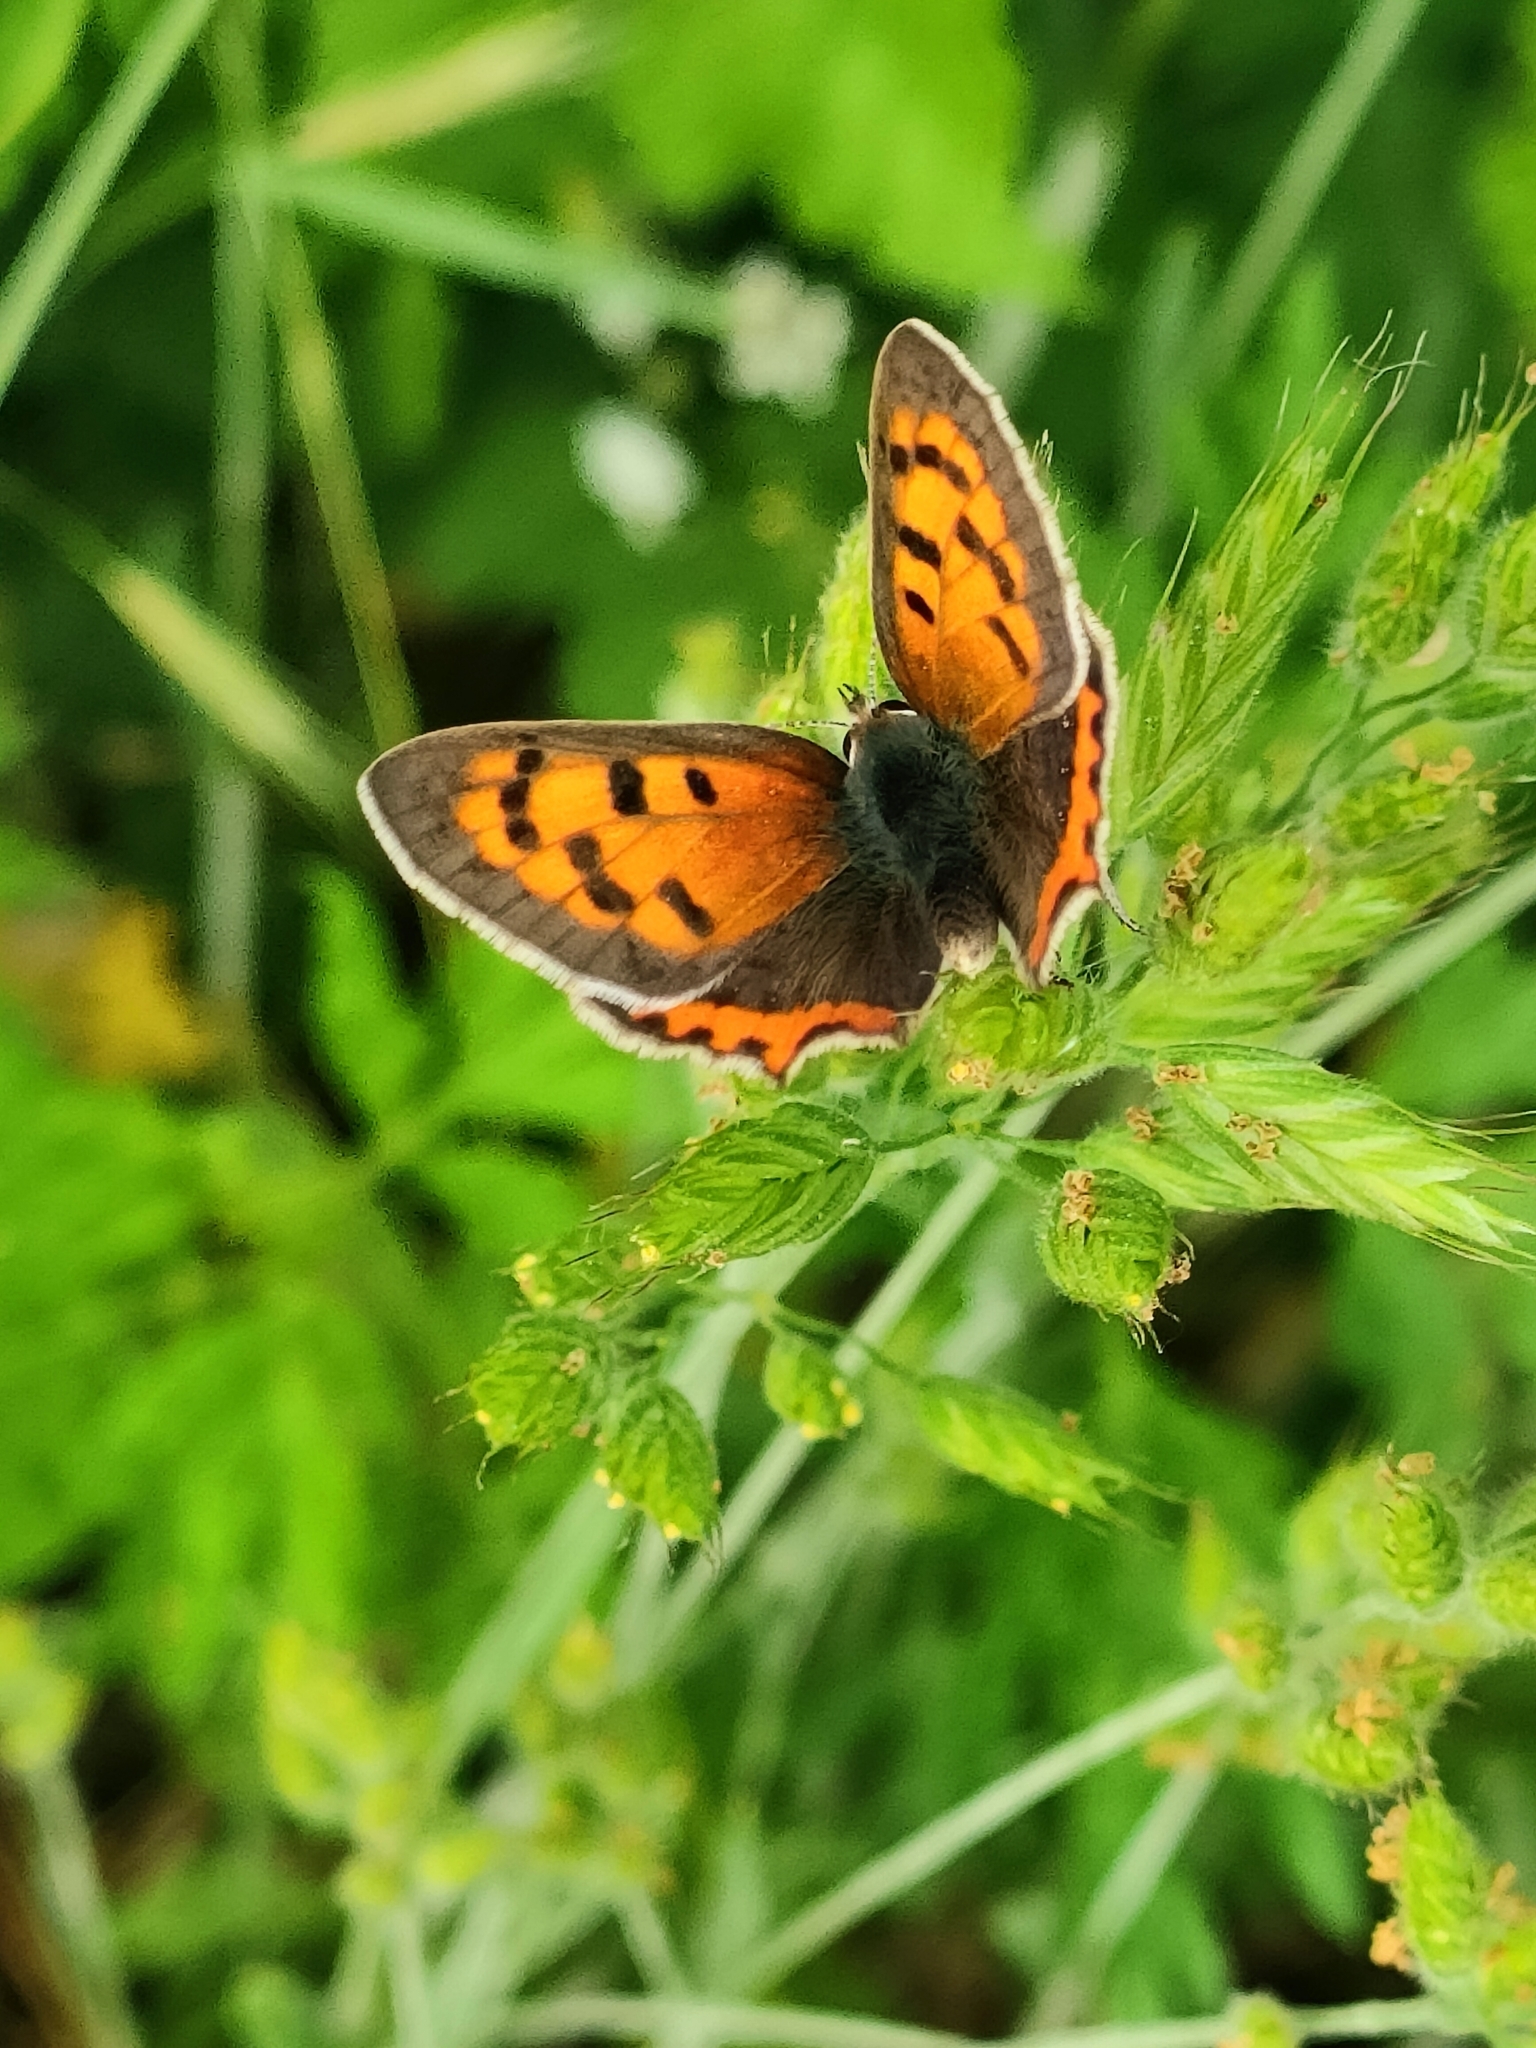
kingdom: Animalia
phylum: Arthropoda
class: Insecta
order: Lepidoptera
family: Lycaenidae
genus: Lycaena
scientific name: Lycaena phlaeas
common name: Small copper
